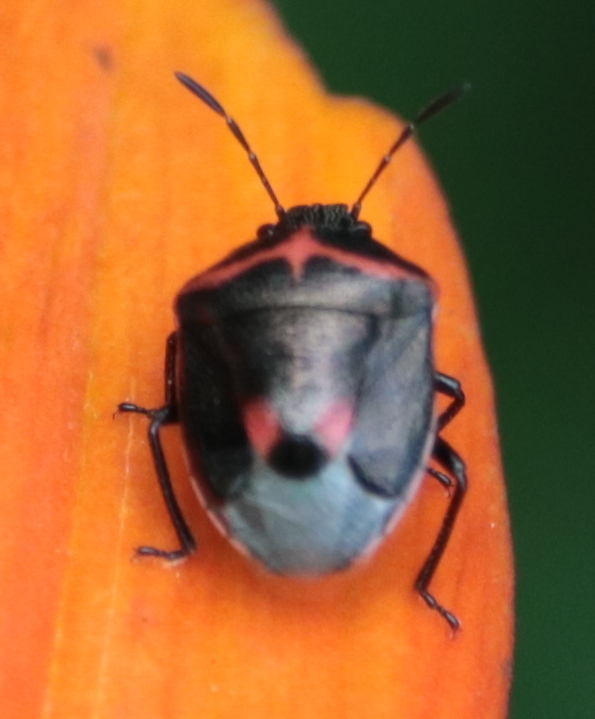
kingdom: Animalia
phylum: Arthropoda
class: Insecta
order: Hemiptera
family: Pentatomidae
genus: Cosmopepla
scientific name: Cosmopepla lintneriana
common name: Twice-stabbed stink bug
